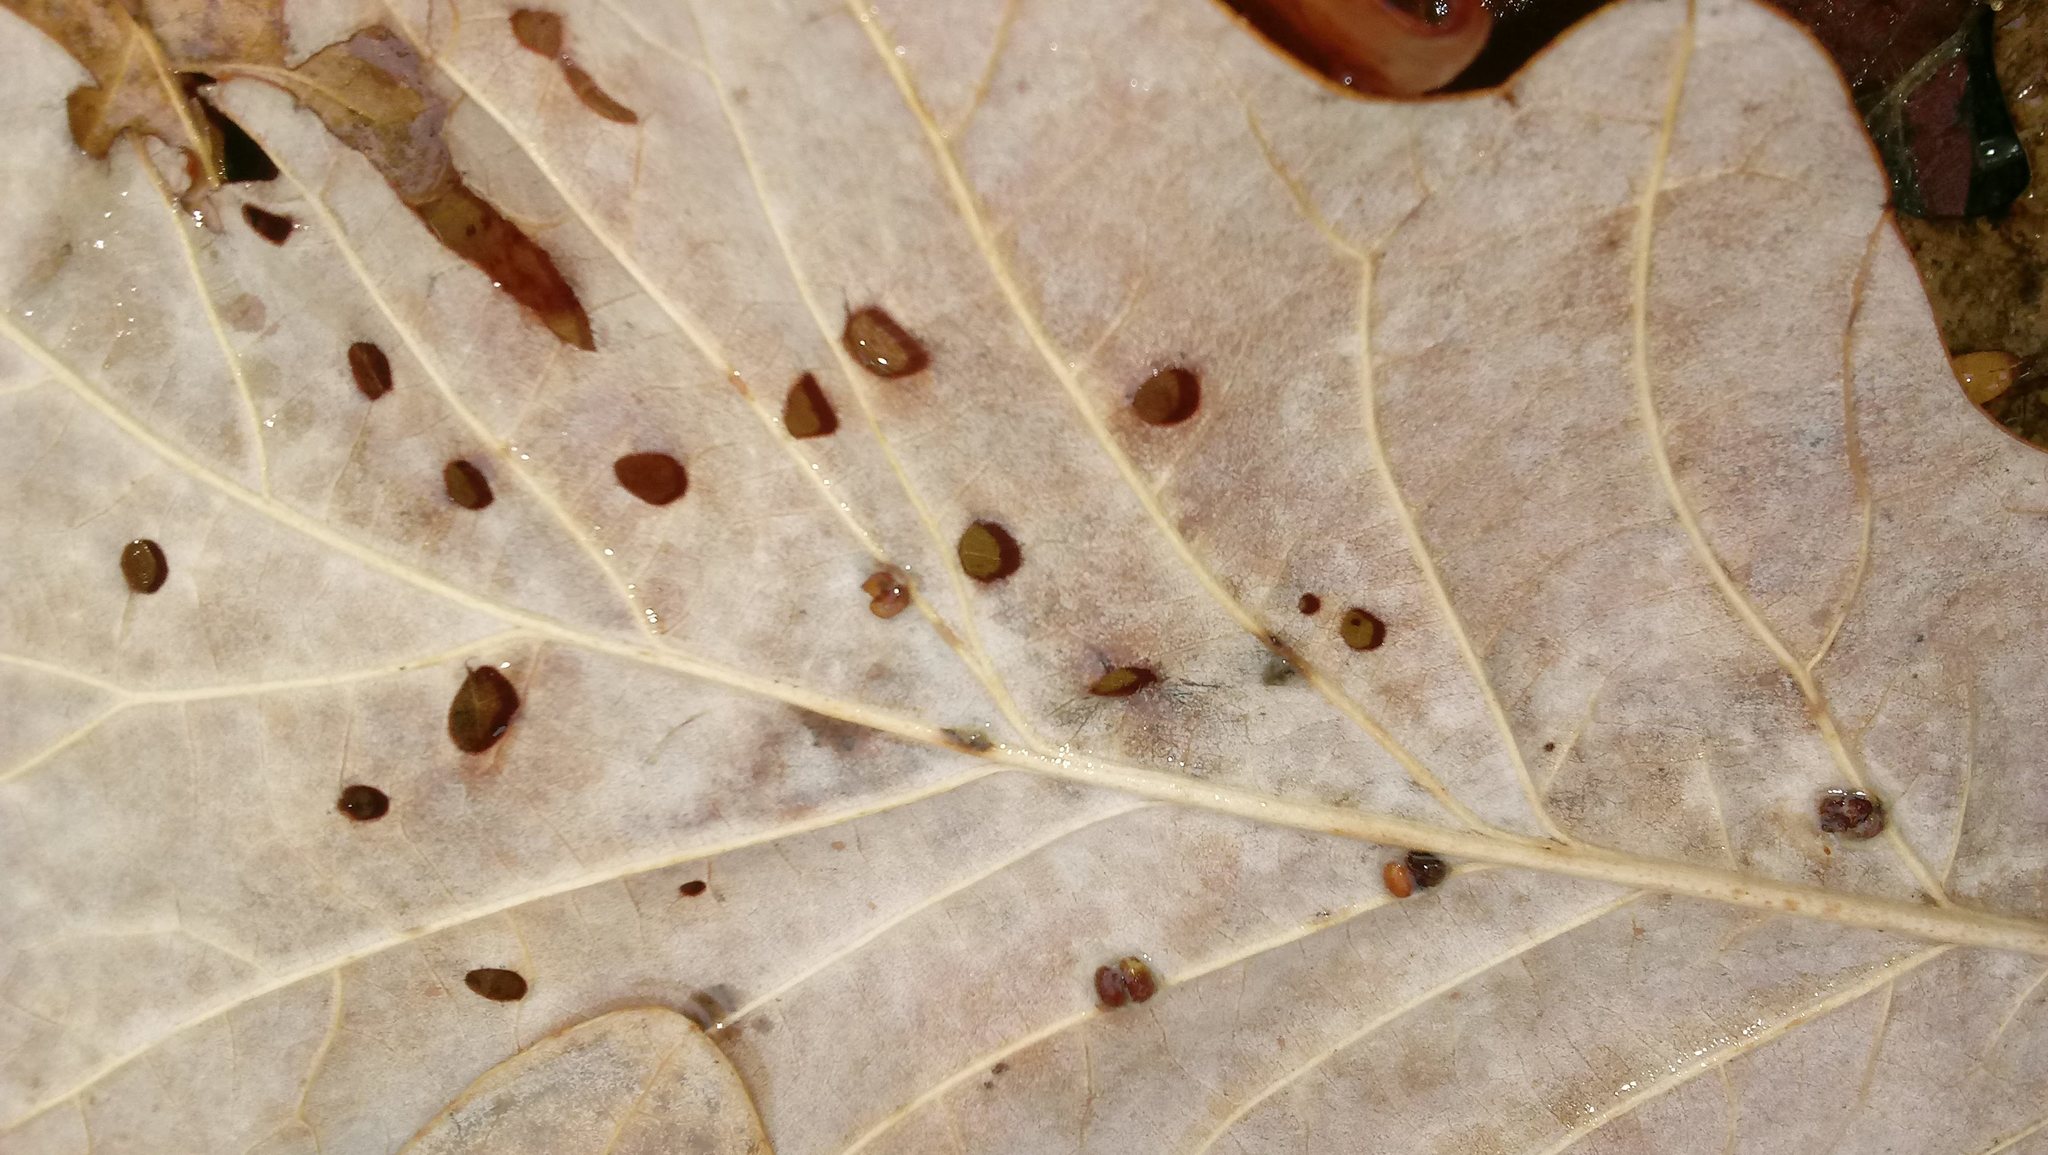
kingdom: Animalia
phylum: Arthropoda
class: Insecta
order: Hymenoptera
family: Cynipidae
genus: Andricus
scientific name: Andricus Druon ignotum
